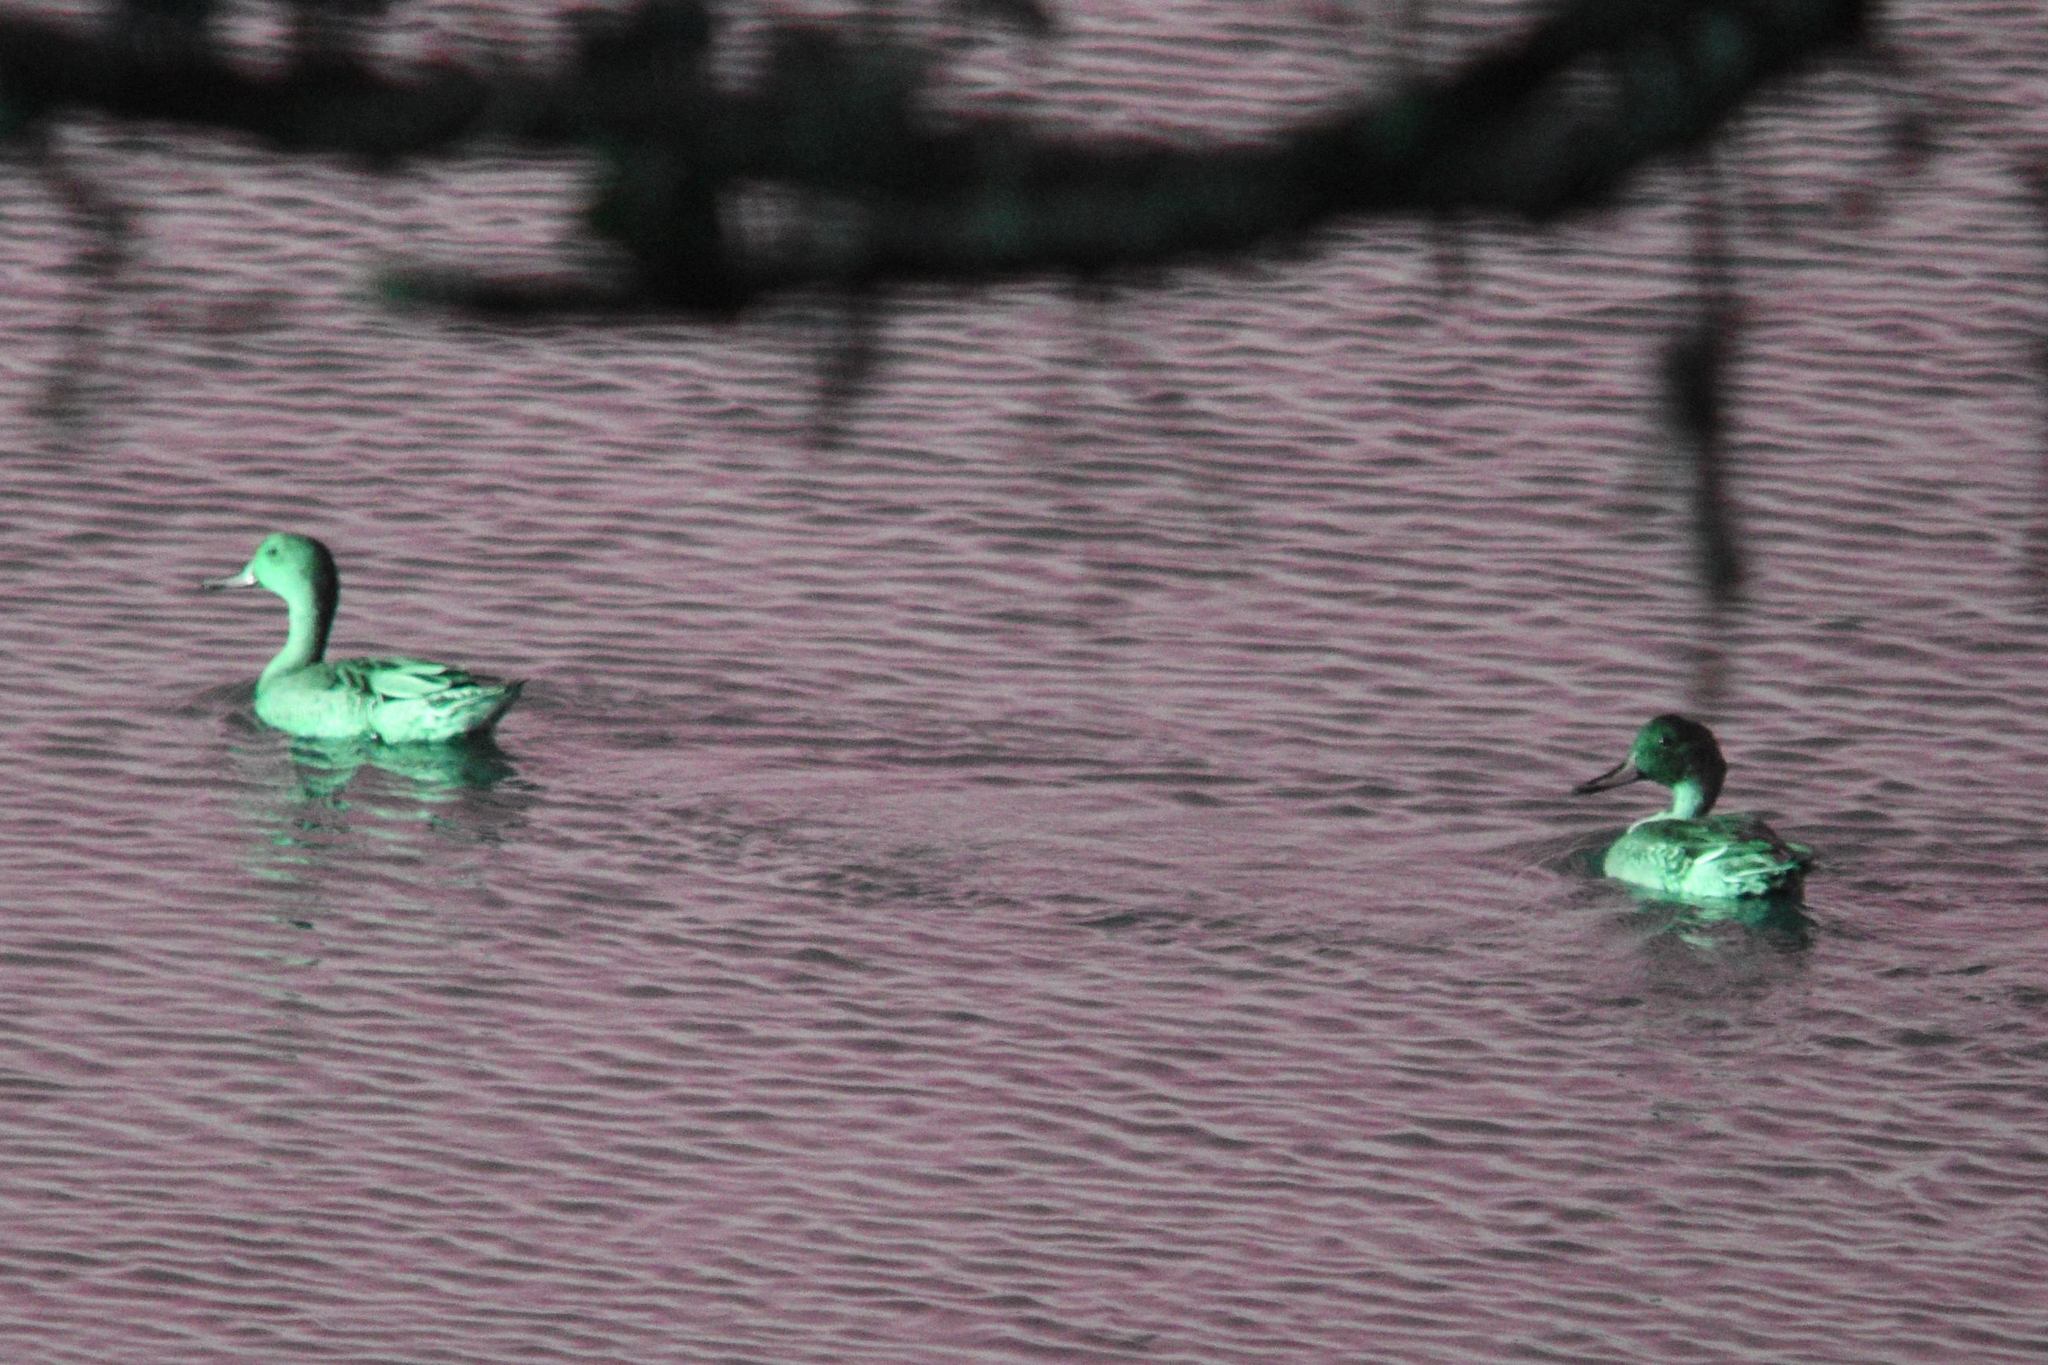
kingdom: Animalia
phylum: Chordata
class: Aves
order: Anseriformes
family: Anatidae
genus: Anas
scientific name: Anas acuta
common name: Northern pintail
